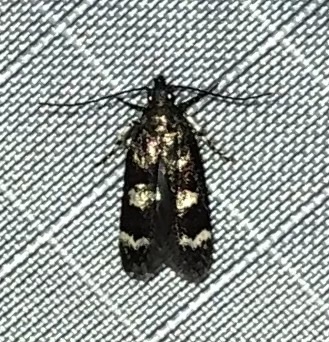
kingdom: Animalia
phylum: Arthropoda
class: Insecta
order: Lepidoptera
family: Gelechiidae
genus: Fascista
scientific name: Fascista bimaculella
